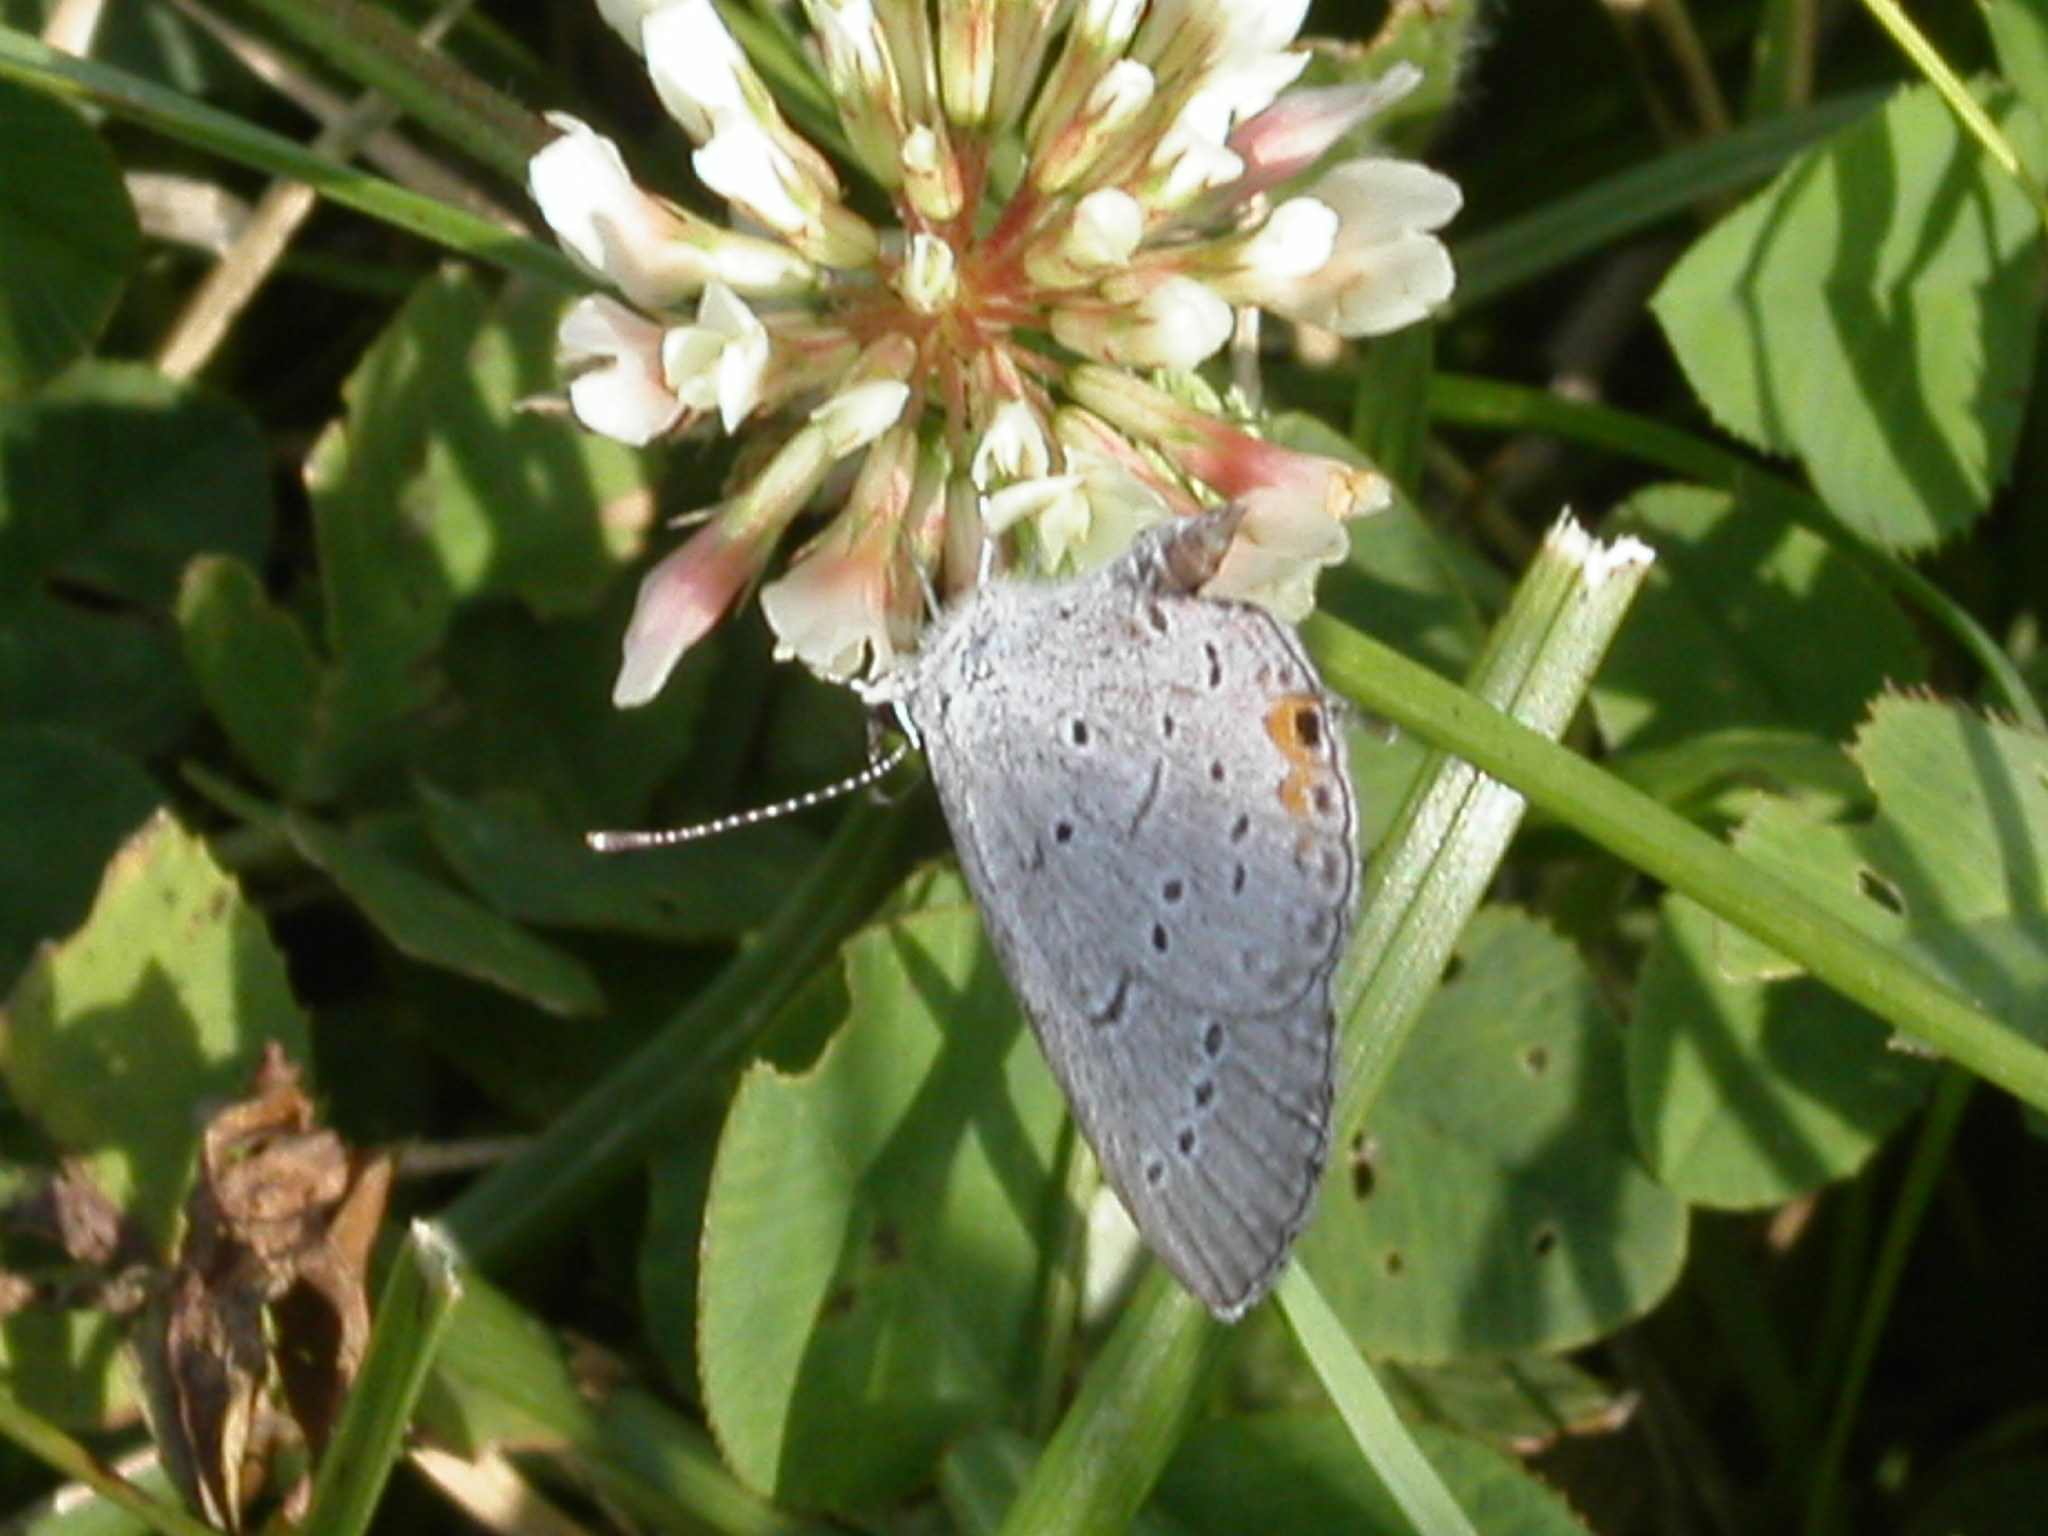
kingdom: Animalia
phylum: Arthropoda
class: Insecta
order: Lepidoptera
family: Lycaenidae
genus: Elkalyce
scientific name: Elkalyce comyntas
